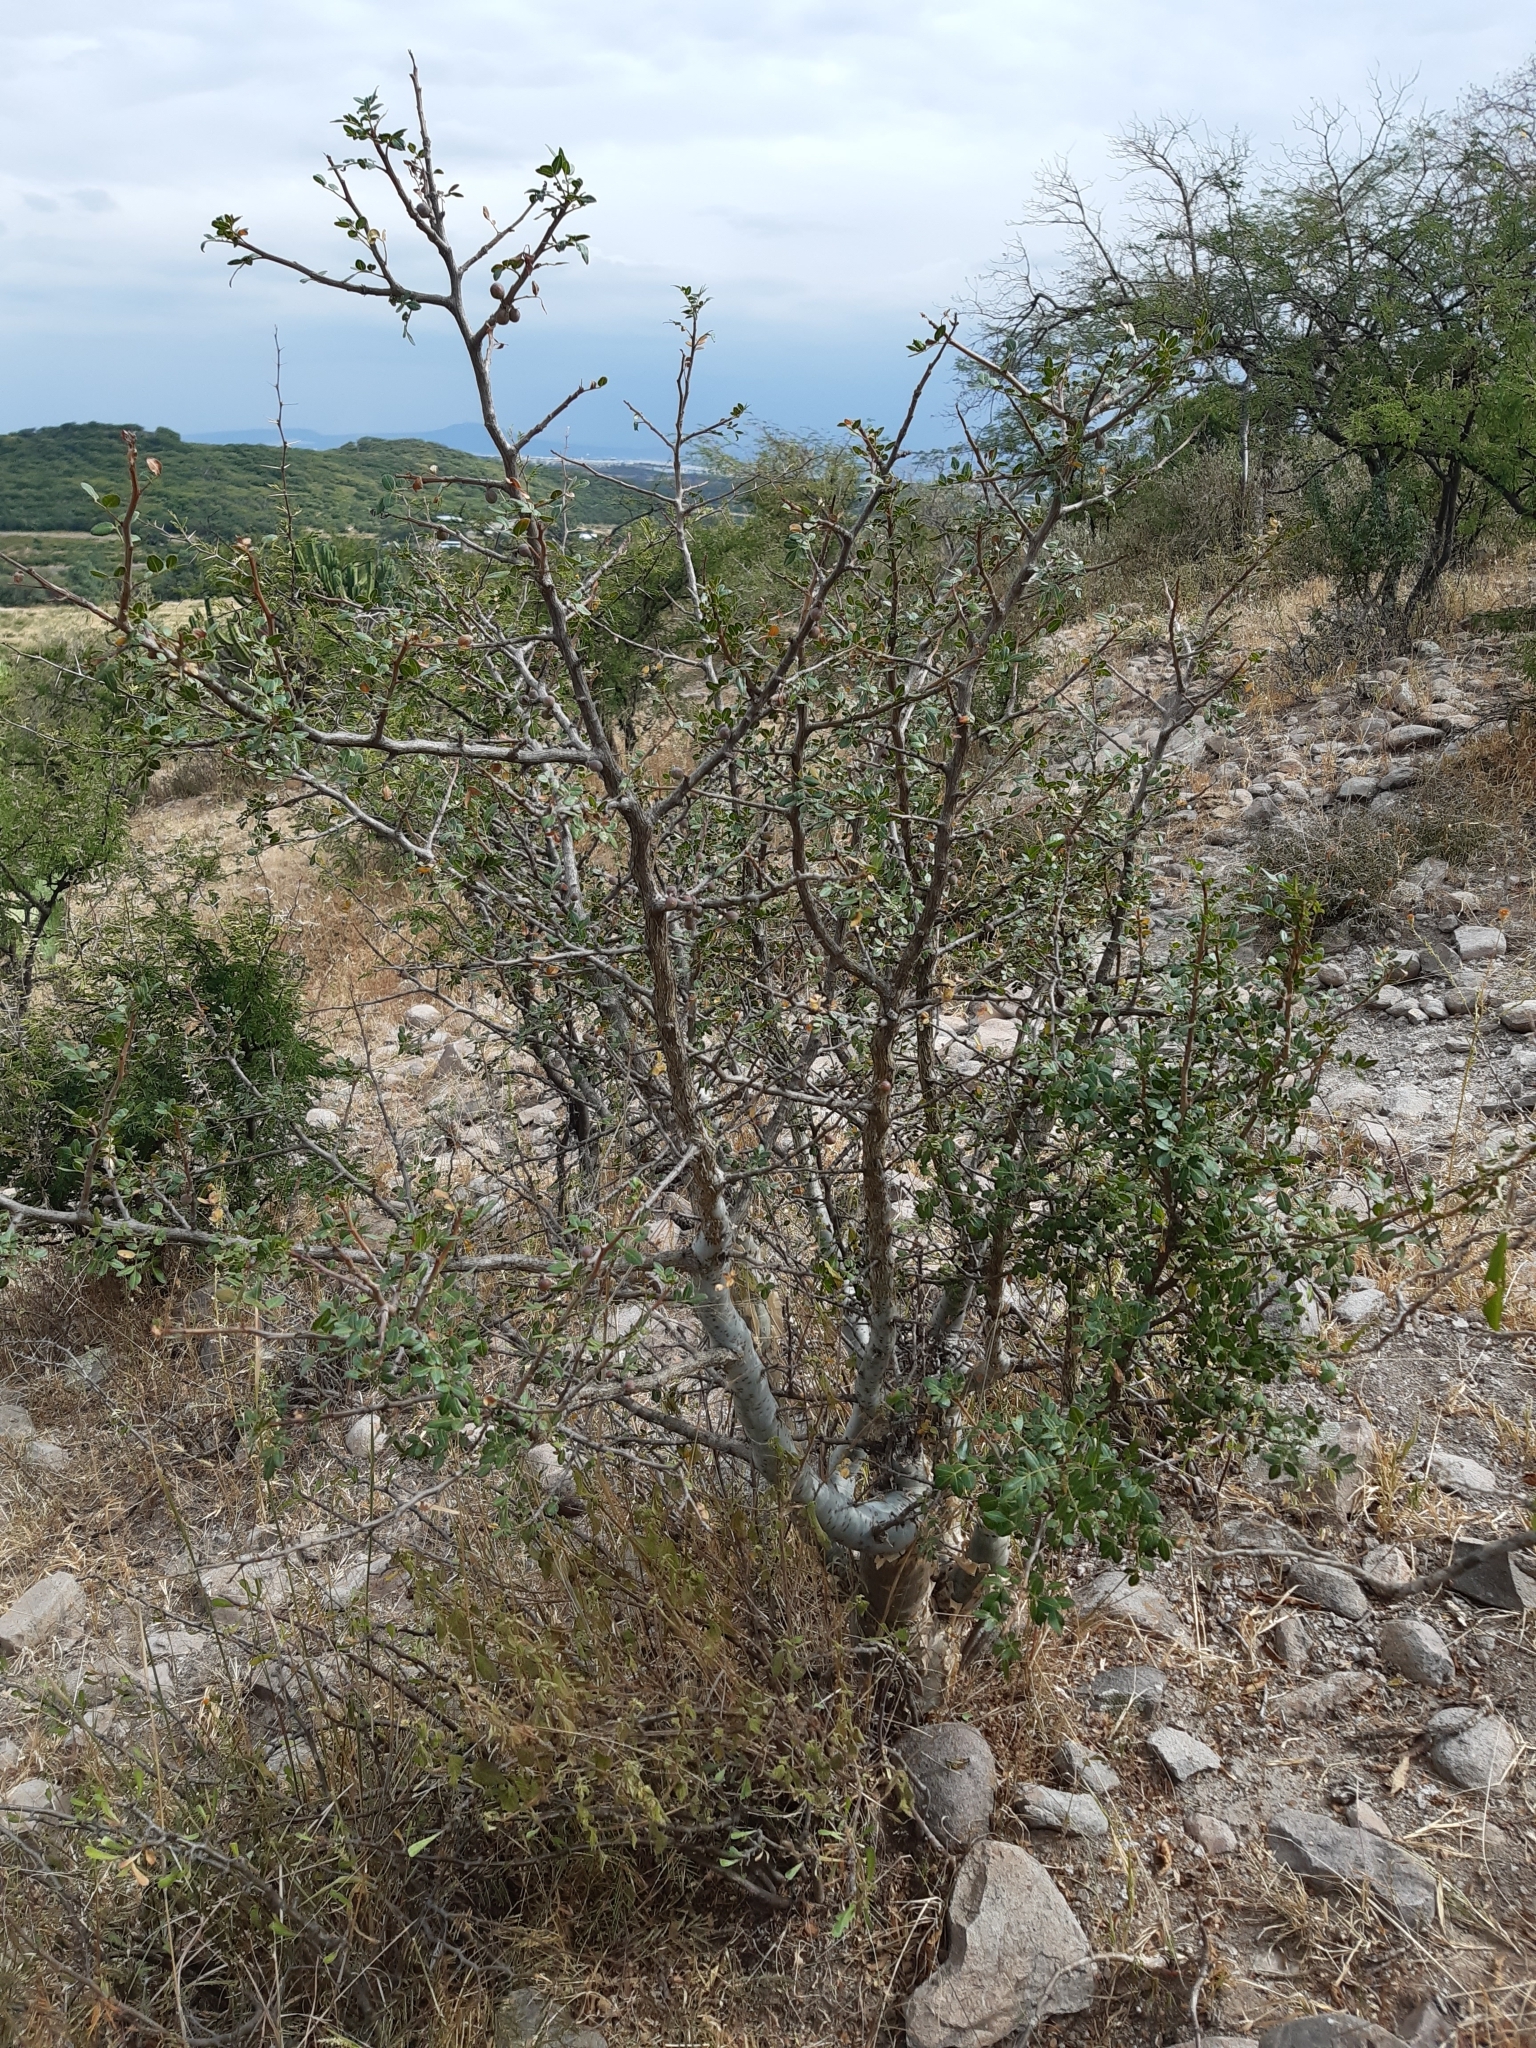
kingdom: Plantae
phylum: Tracheophyta
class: Magnoliopsida
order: Sapindales
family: Burseraceae
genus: Bursera
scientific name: Bursera fagaroides
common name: Elephant tree
